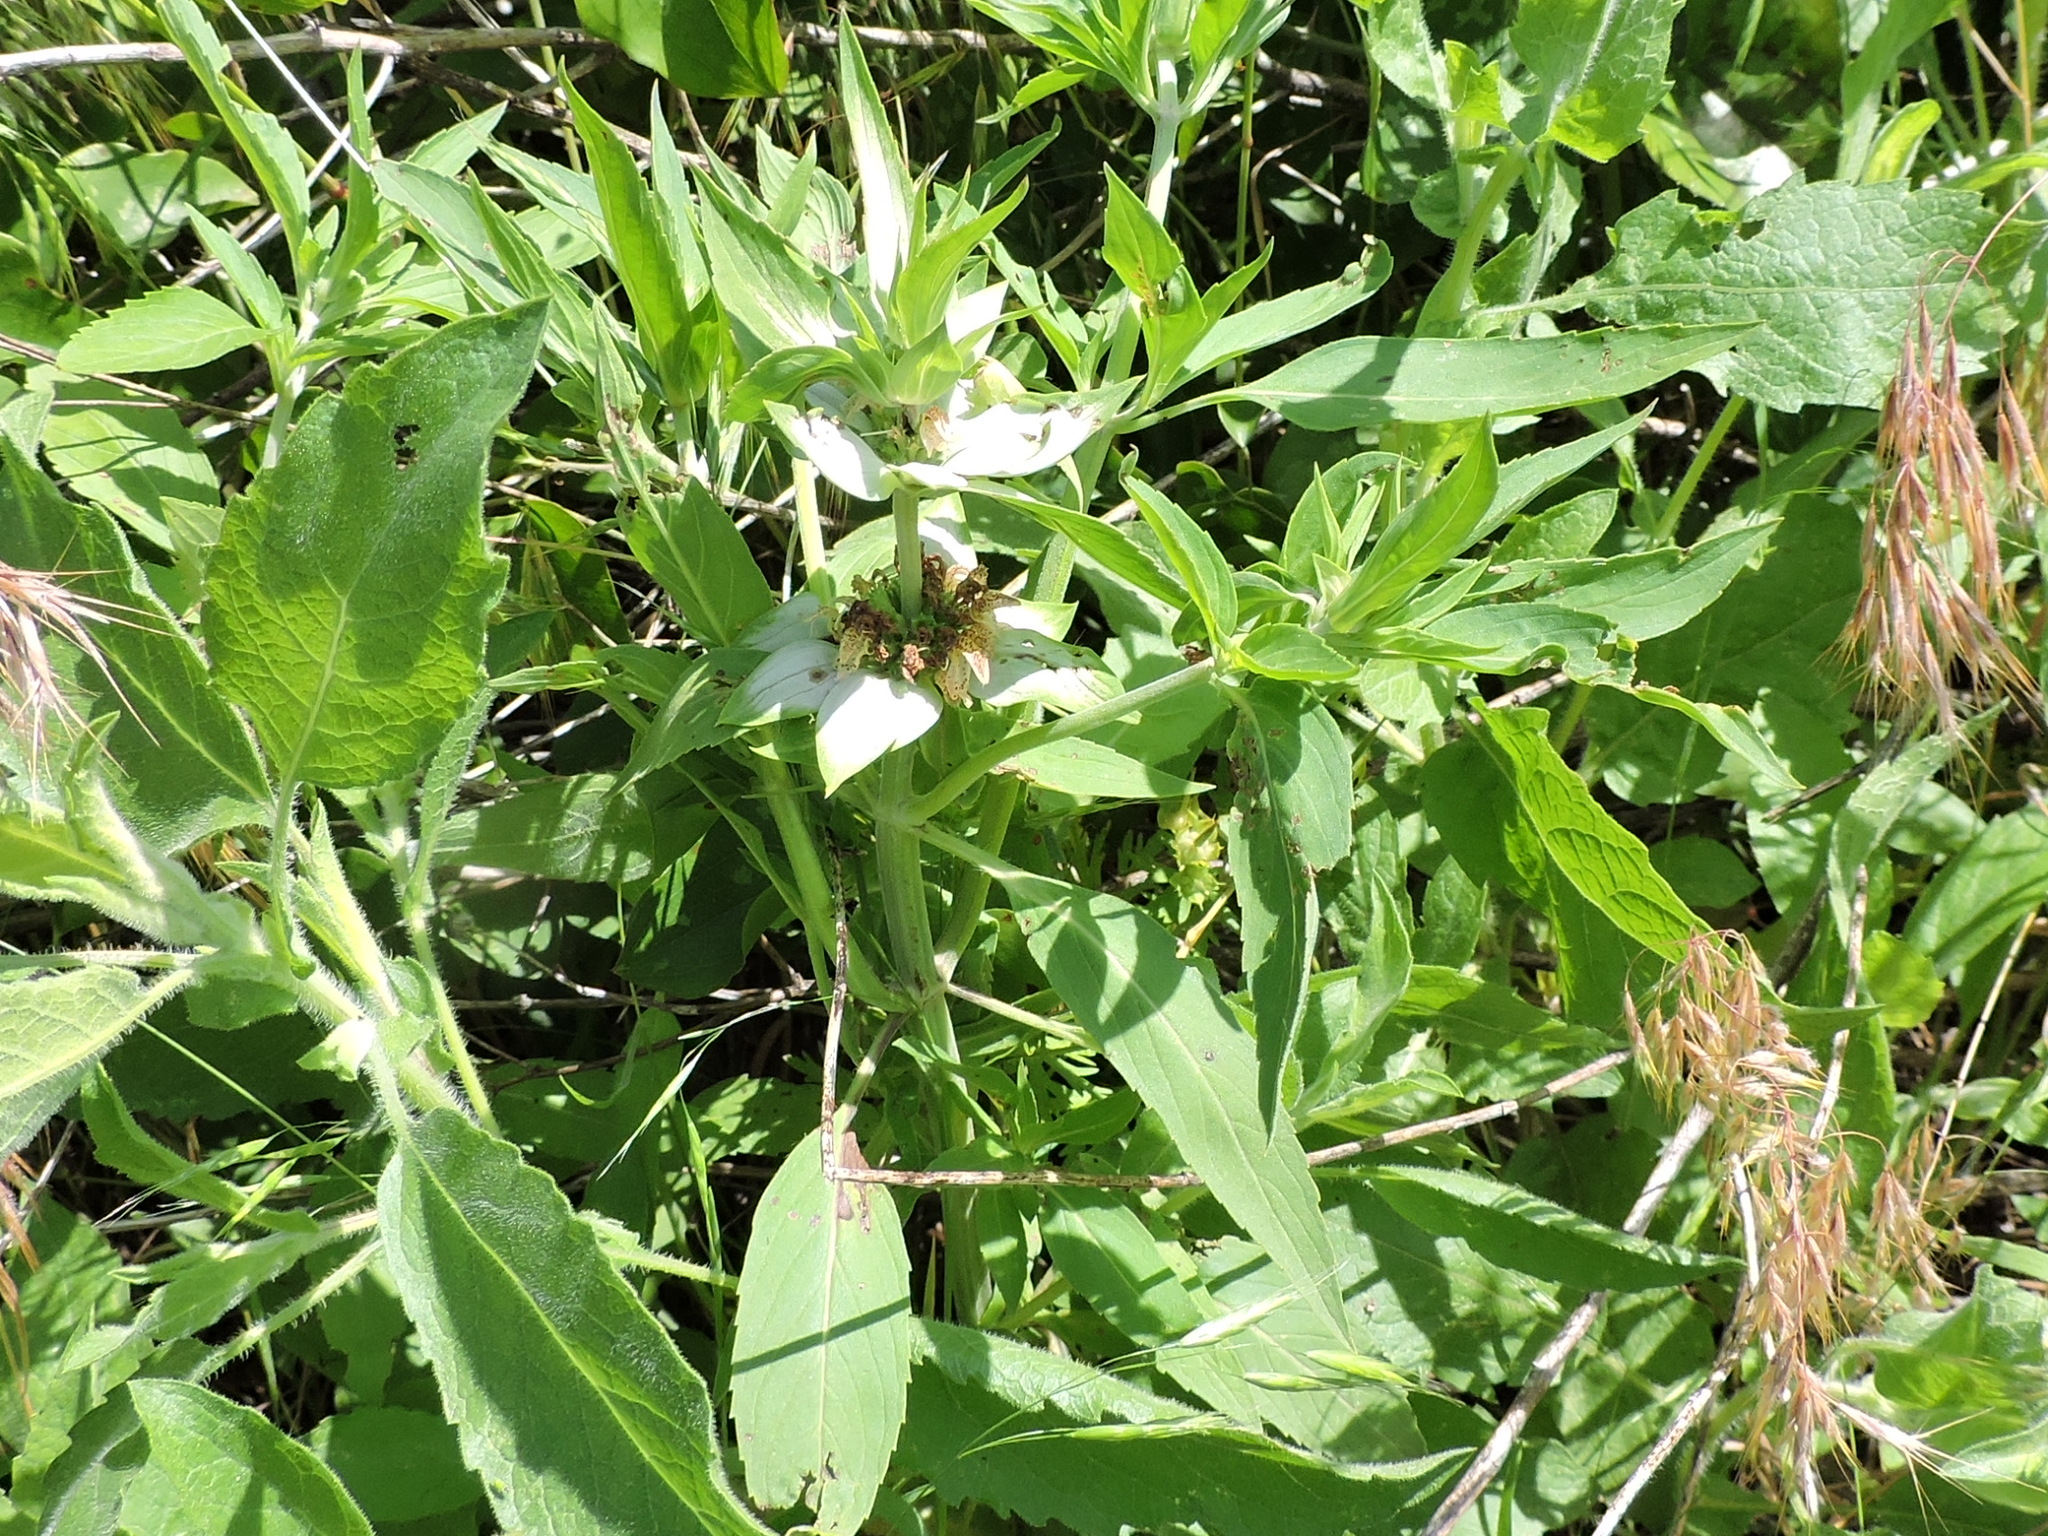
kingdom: Plantae
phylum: Tracheophyta
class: Magnoliopsida
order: Lamiales
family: Lamiaceae
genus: Monarda
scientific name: Monarda punctata
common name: Dotted monarda
